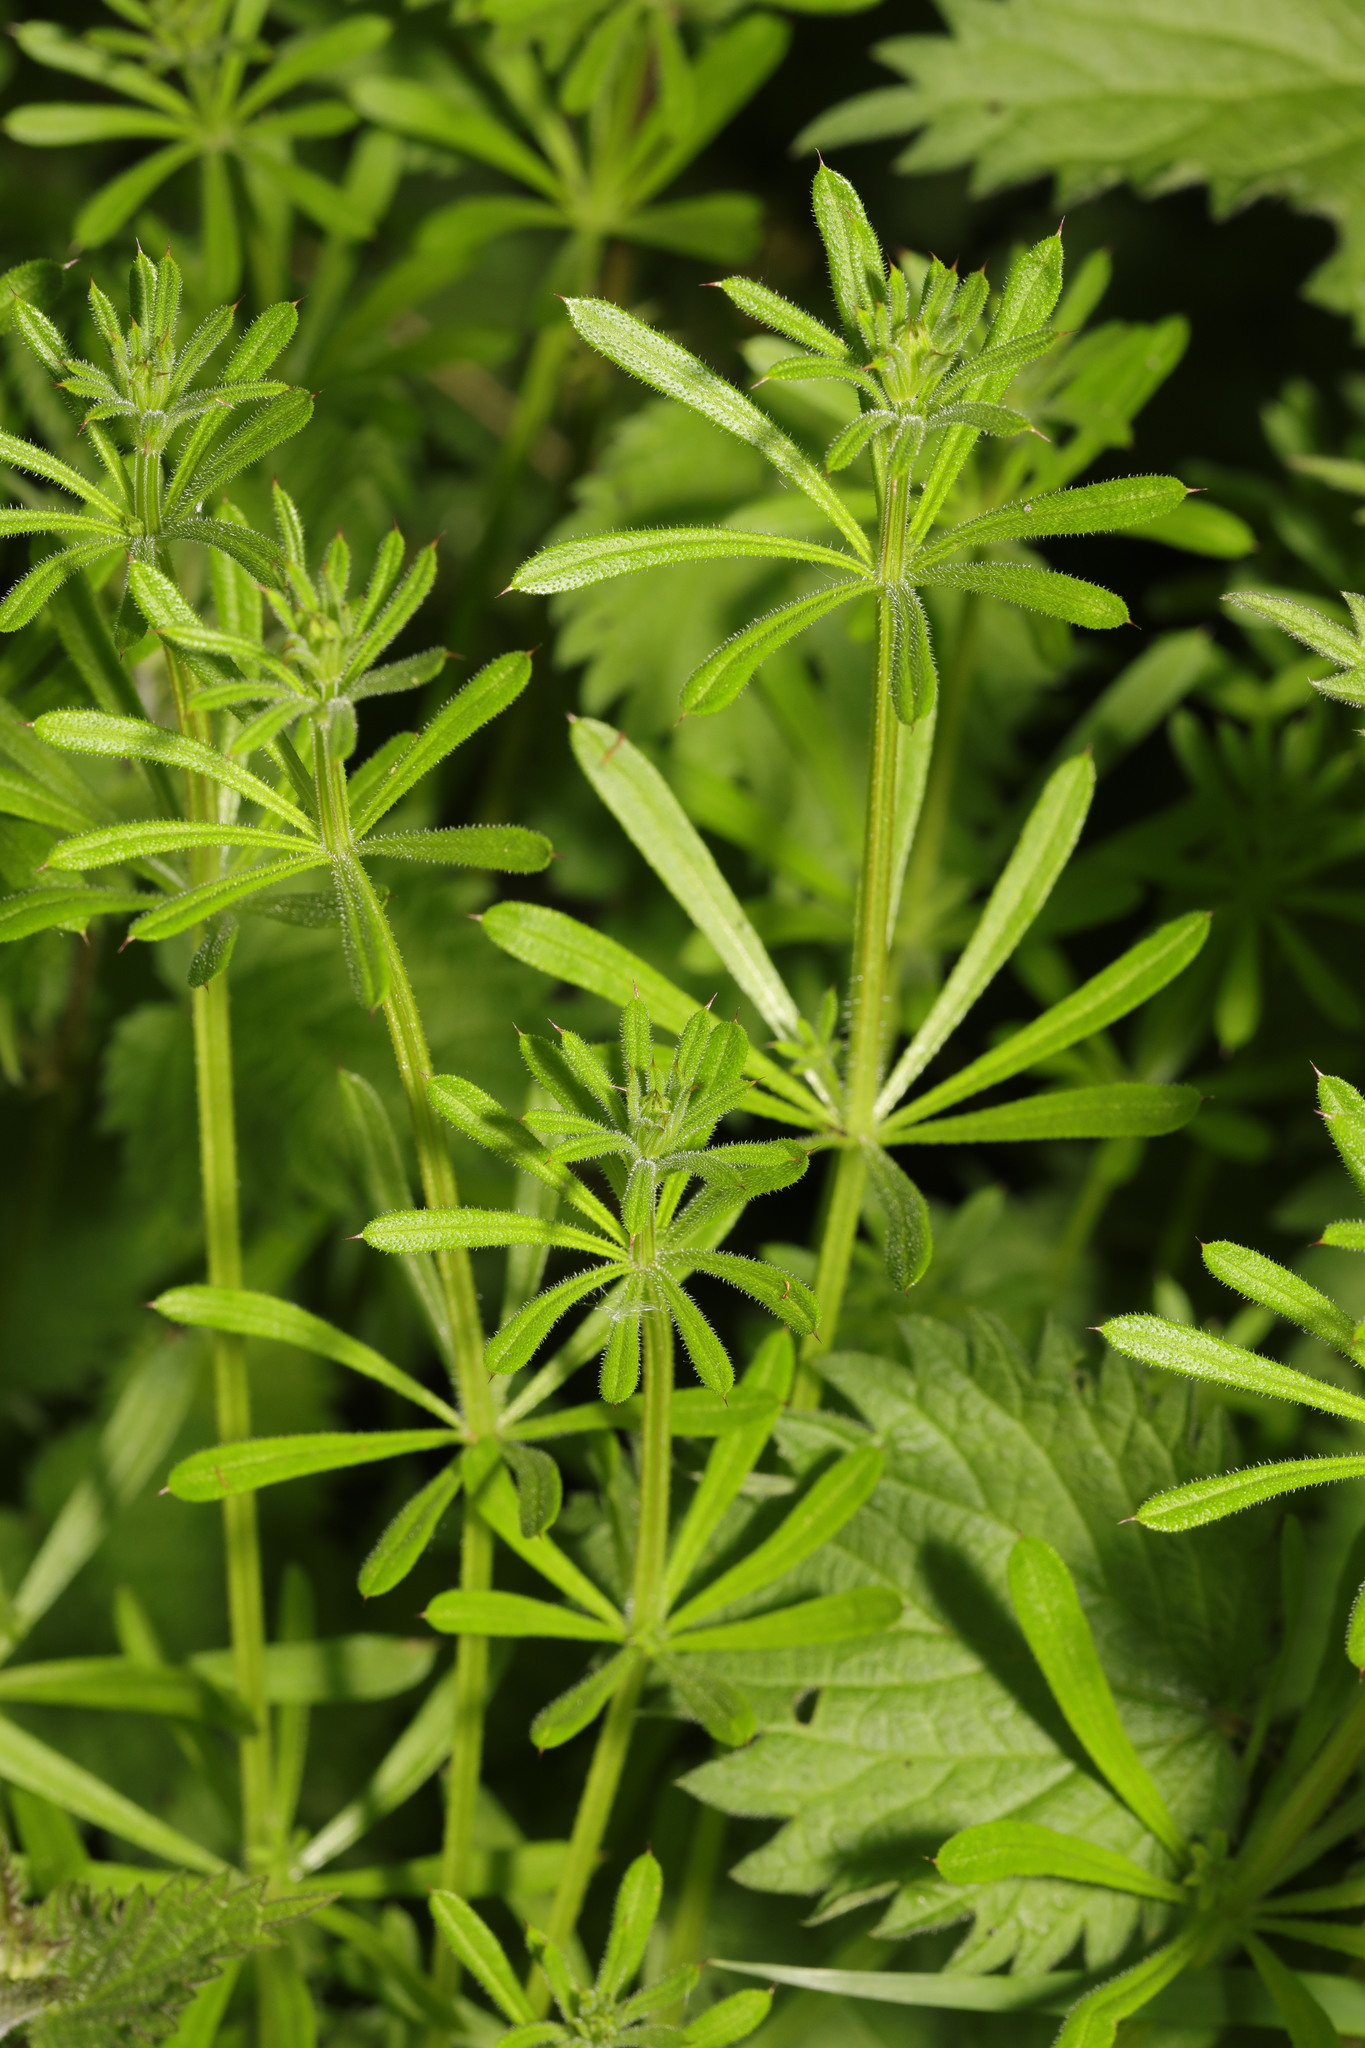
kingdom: Plantae
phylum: Tracheophyta
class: Magnoliopsida
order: Gentianales
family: Rubiaceae
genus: Galium
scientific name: Galium aparine
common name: Cleavers
